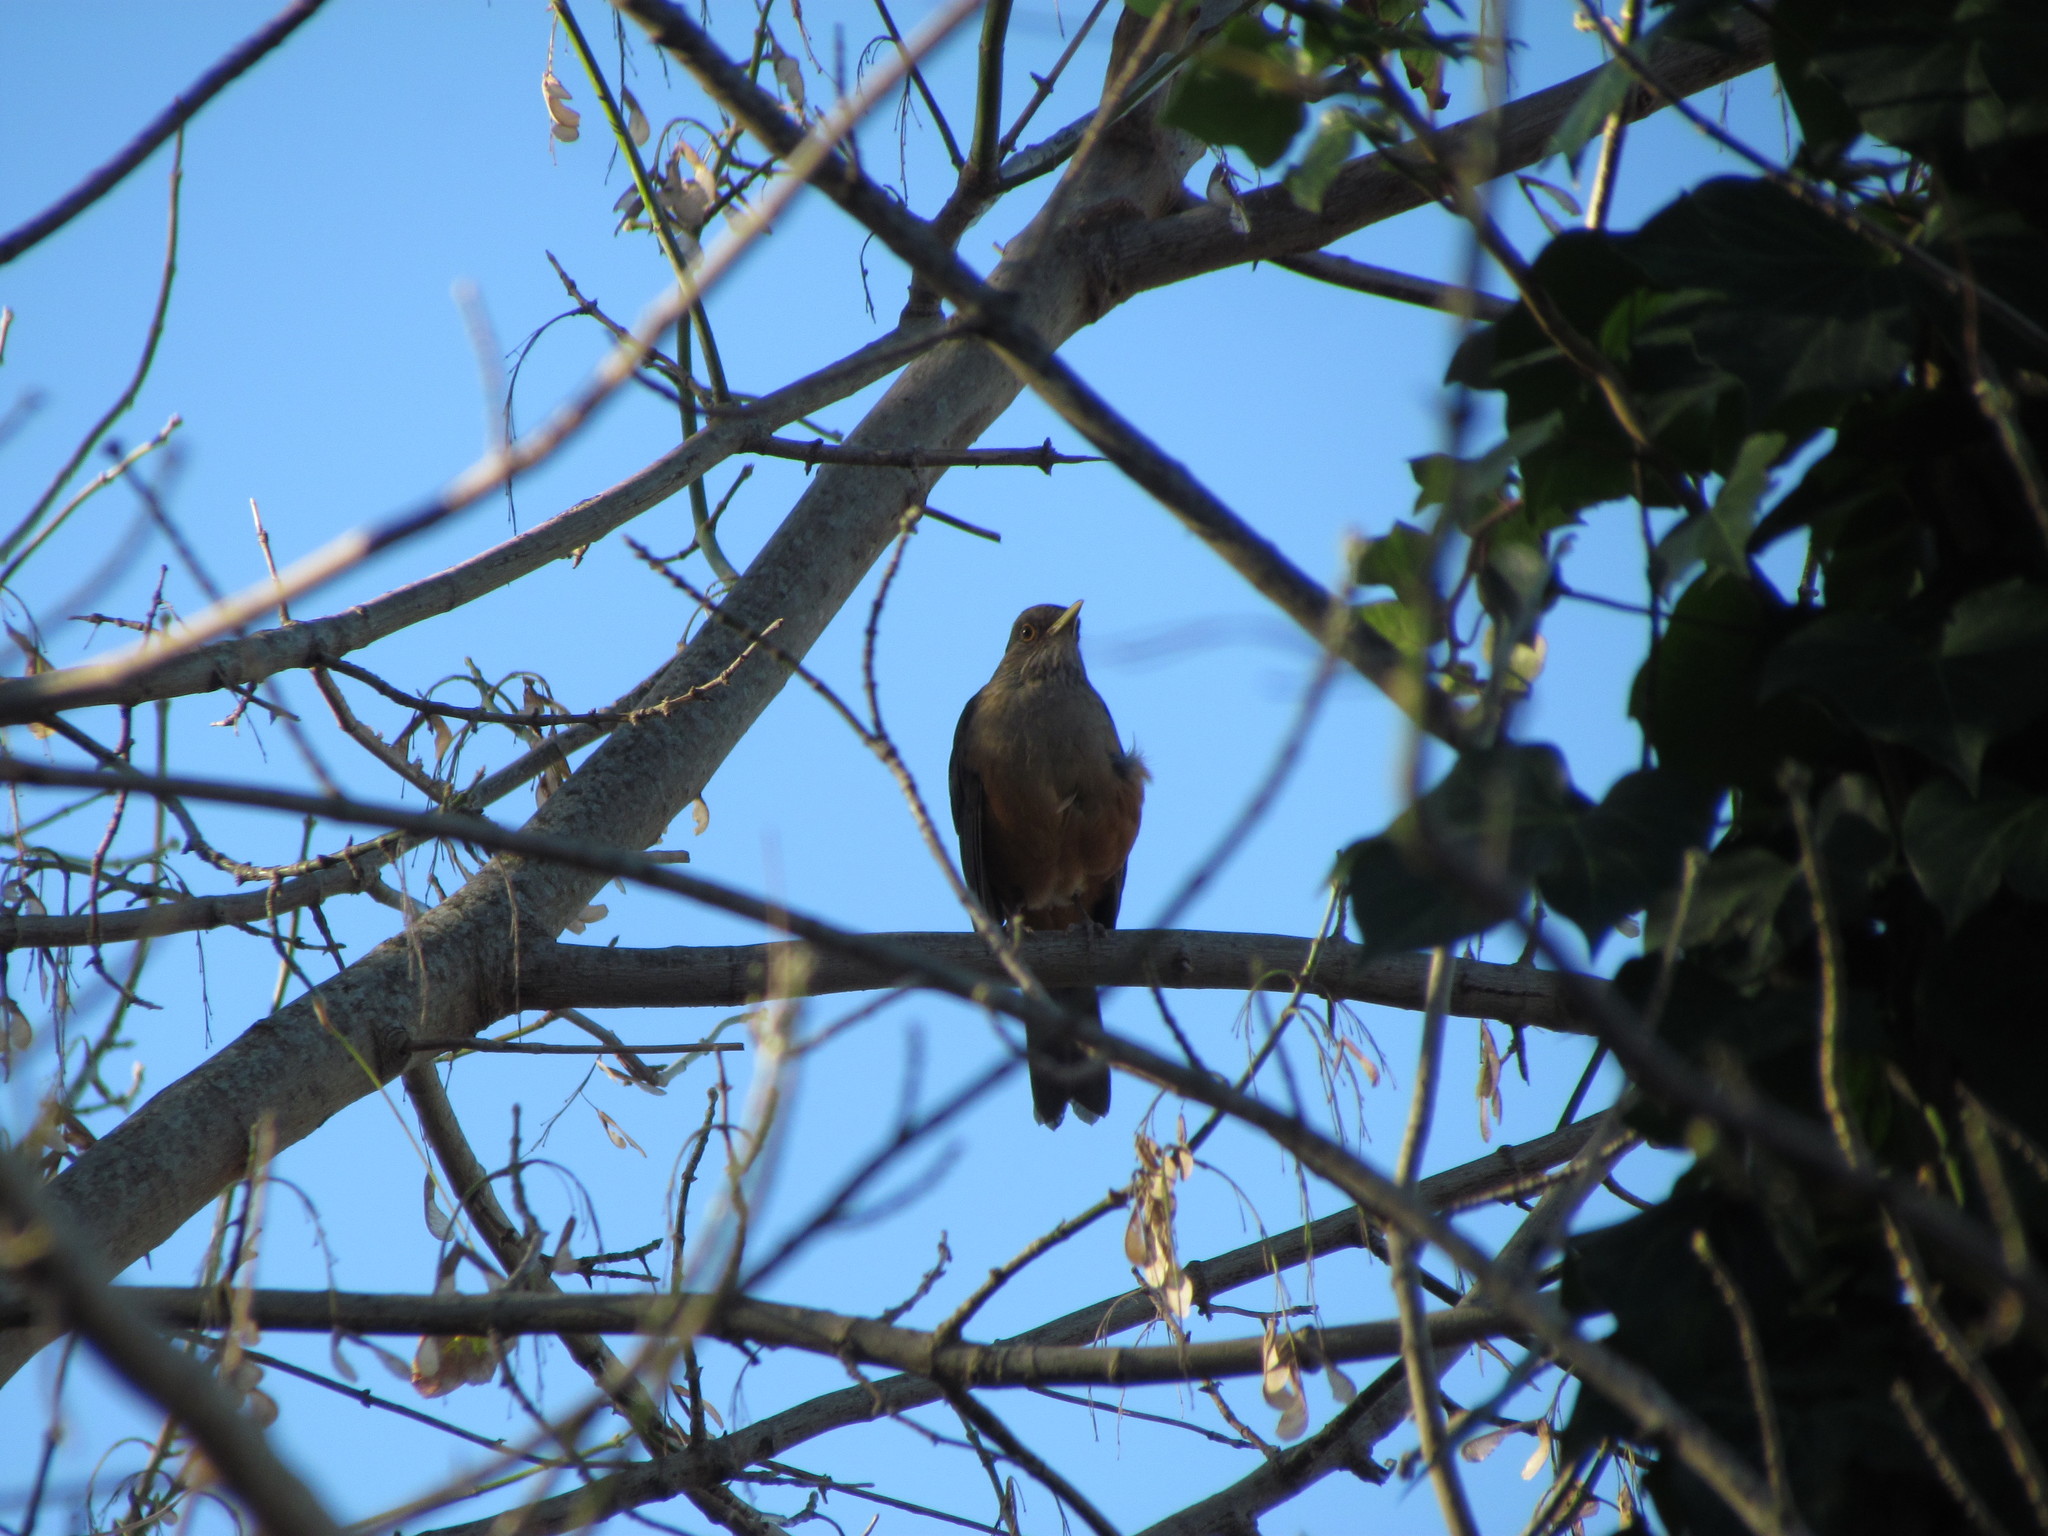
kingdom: Animalia
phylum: Chordata
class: Aves
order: Passeriformes
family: Turdidae
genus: Turdus
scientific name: Turdus rufiventris
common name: Rufous-bellied thrush
